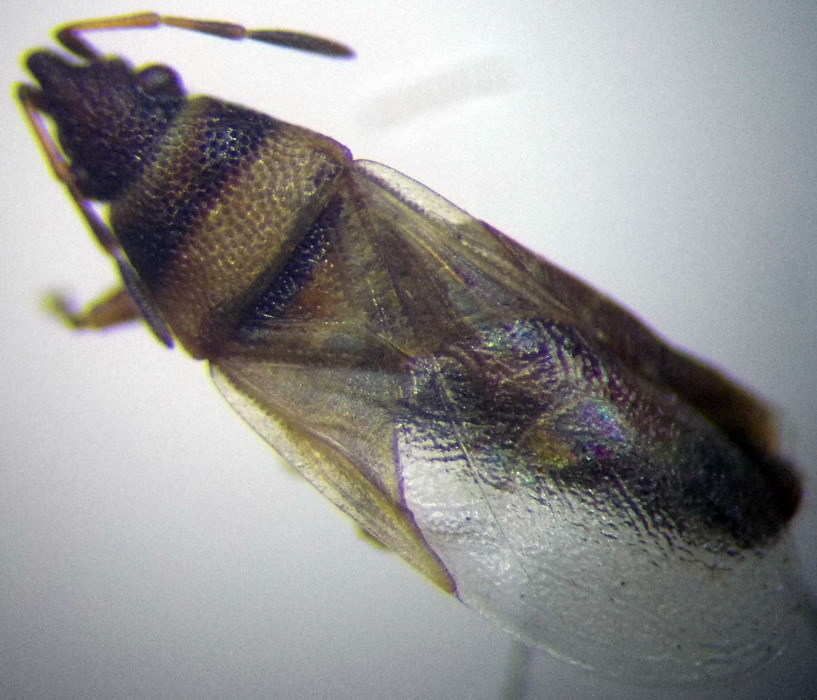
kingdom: Animalia
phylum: Arthropoda
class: Insecta
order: Hemiptera
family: Oxycarenidae
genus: Oxycarenus
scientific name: Oxycarenus pallens
